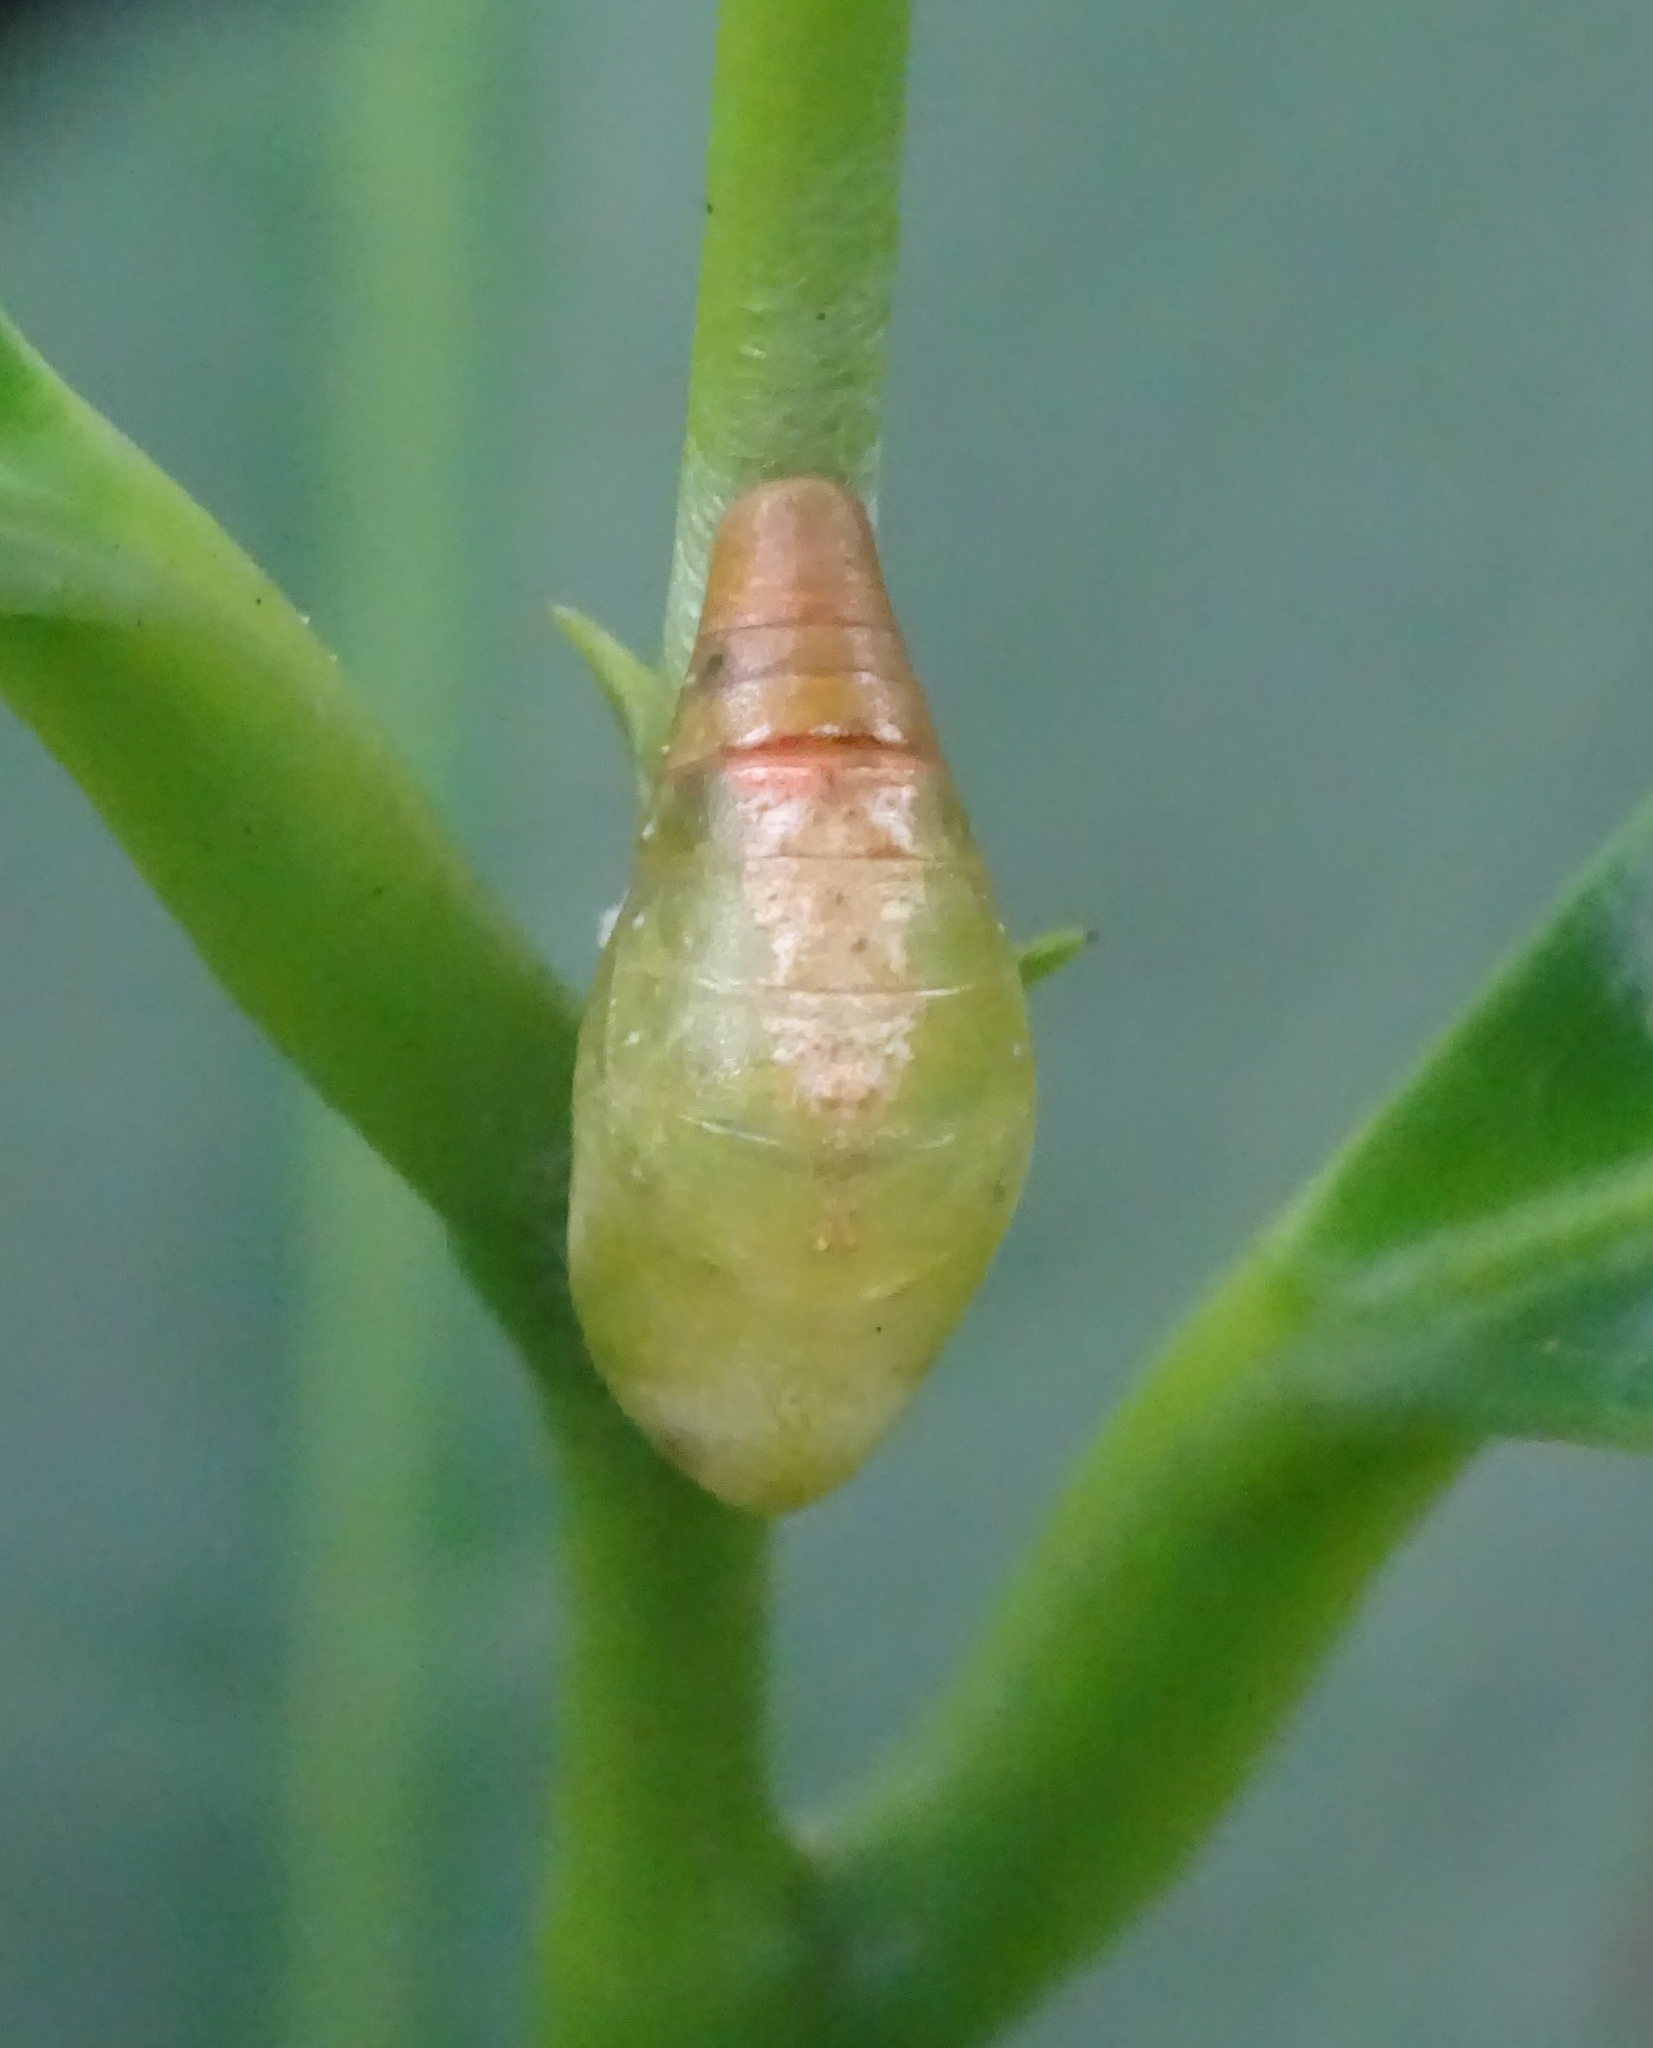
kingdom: Animalia
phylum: Arthropoda
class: Insecta
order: Lepidoptera
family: Lycaenidae
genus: Rathinda
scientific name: Rathinda amor
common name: Monkey puzzle
